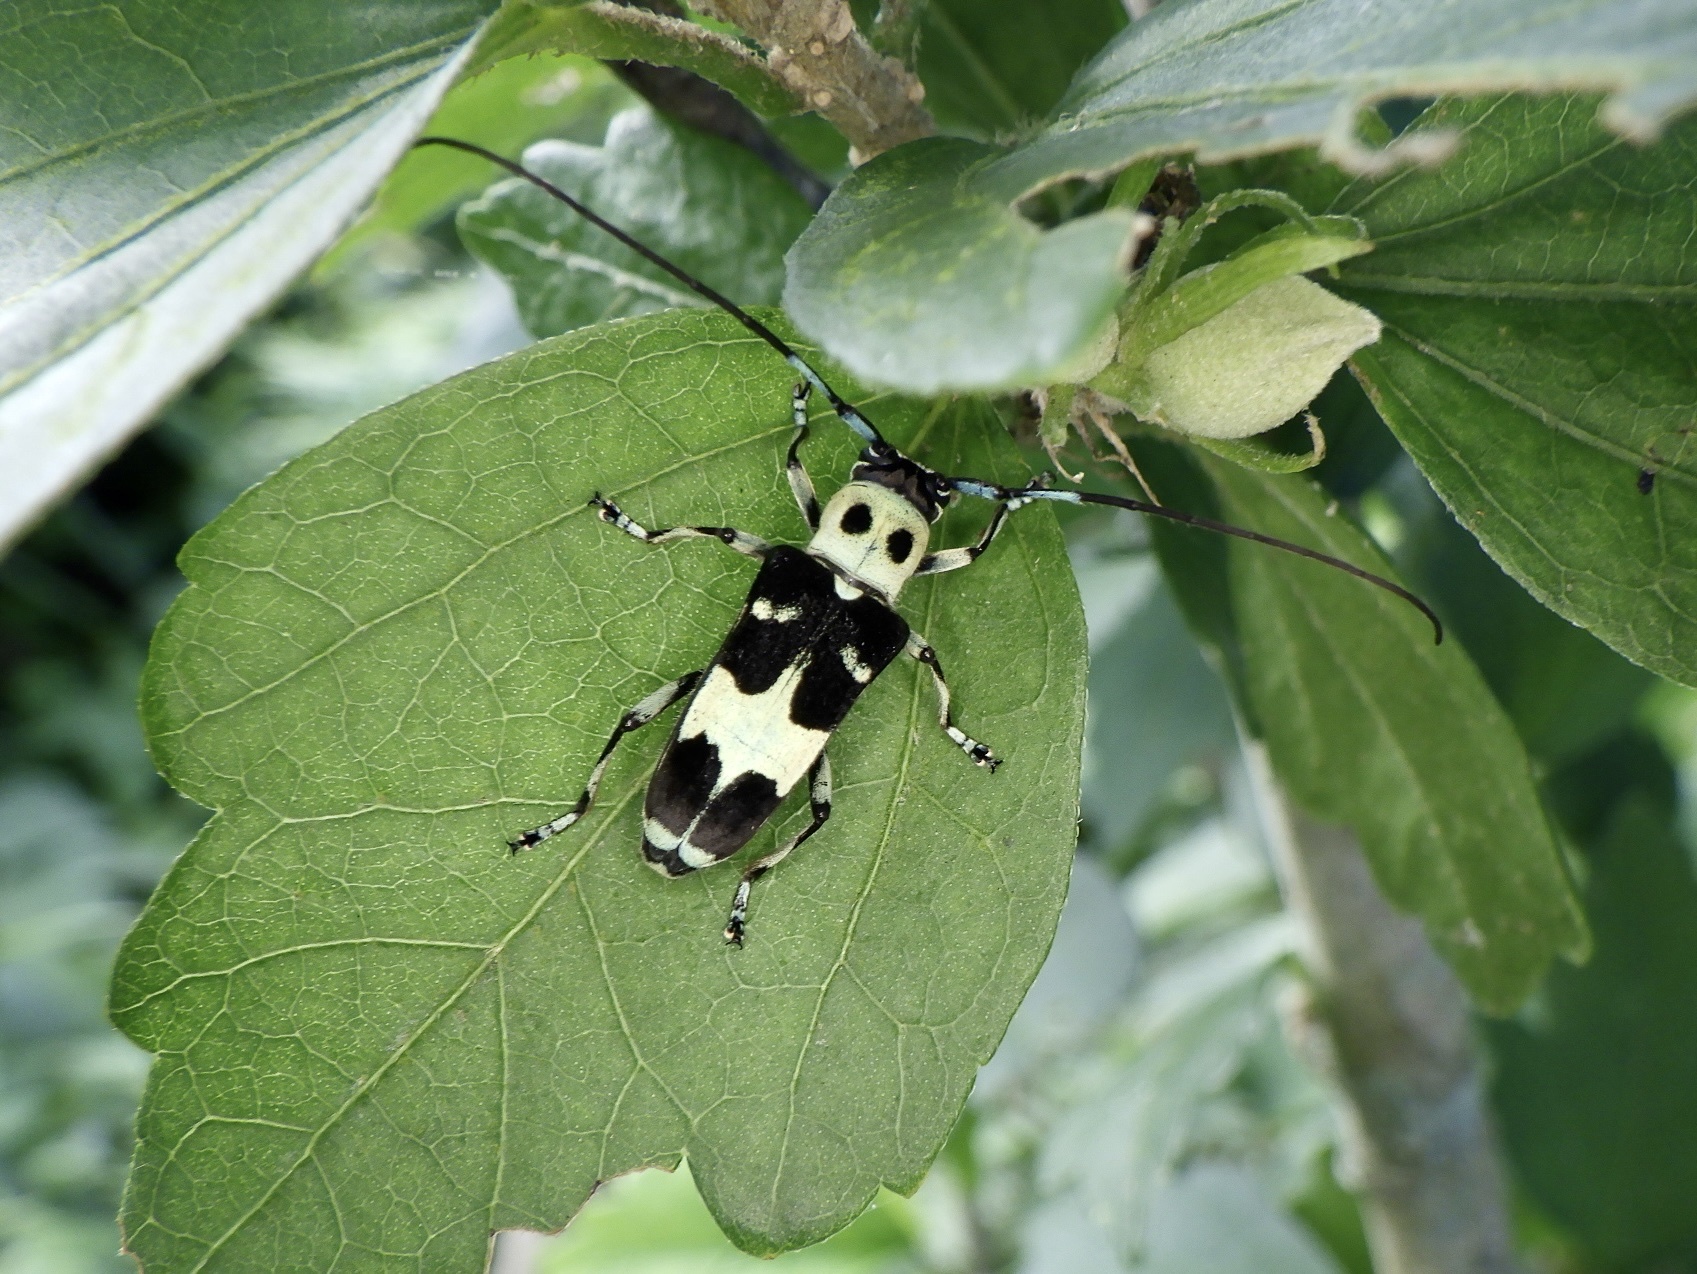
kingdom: Animalia
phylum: Arthropoda
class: Insecta
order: Coleoptera
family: Cerambycidae
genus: Paraglenea
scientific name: Paraglenea fortunei
